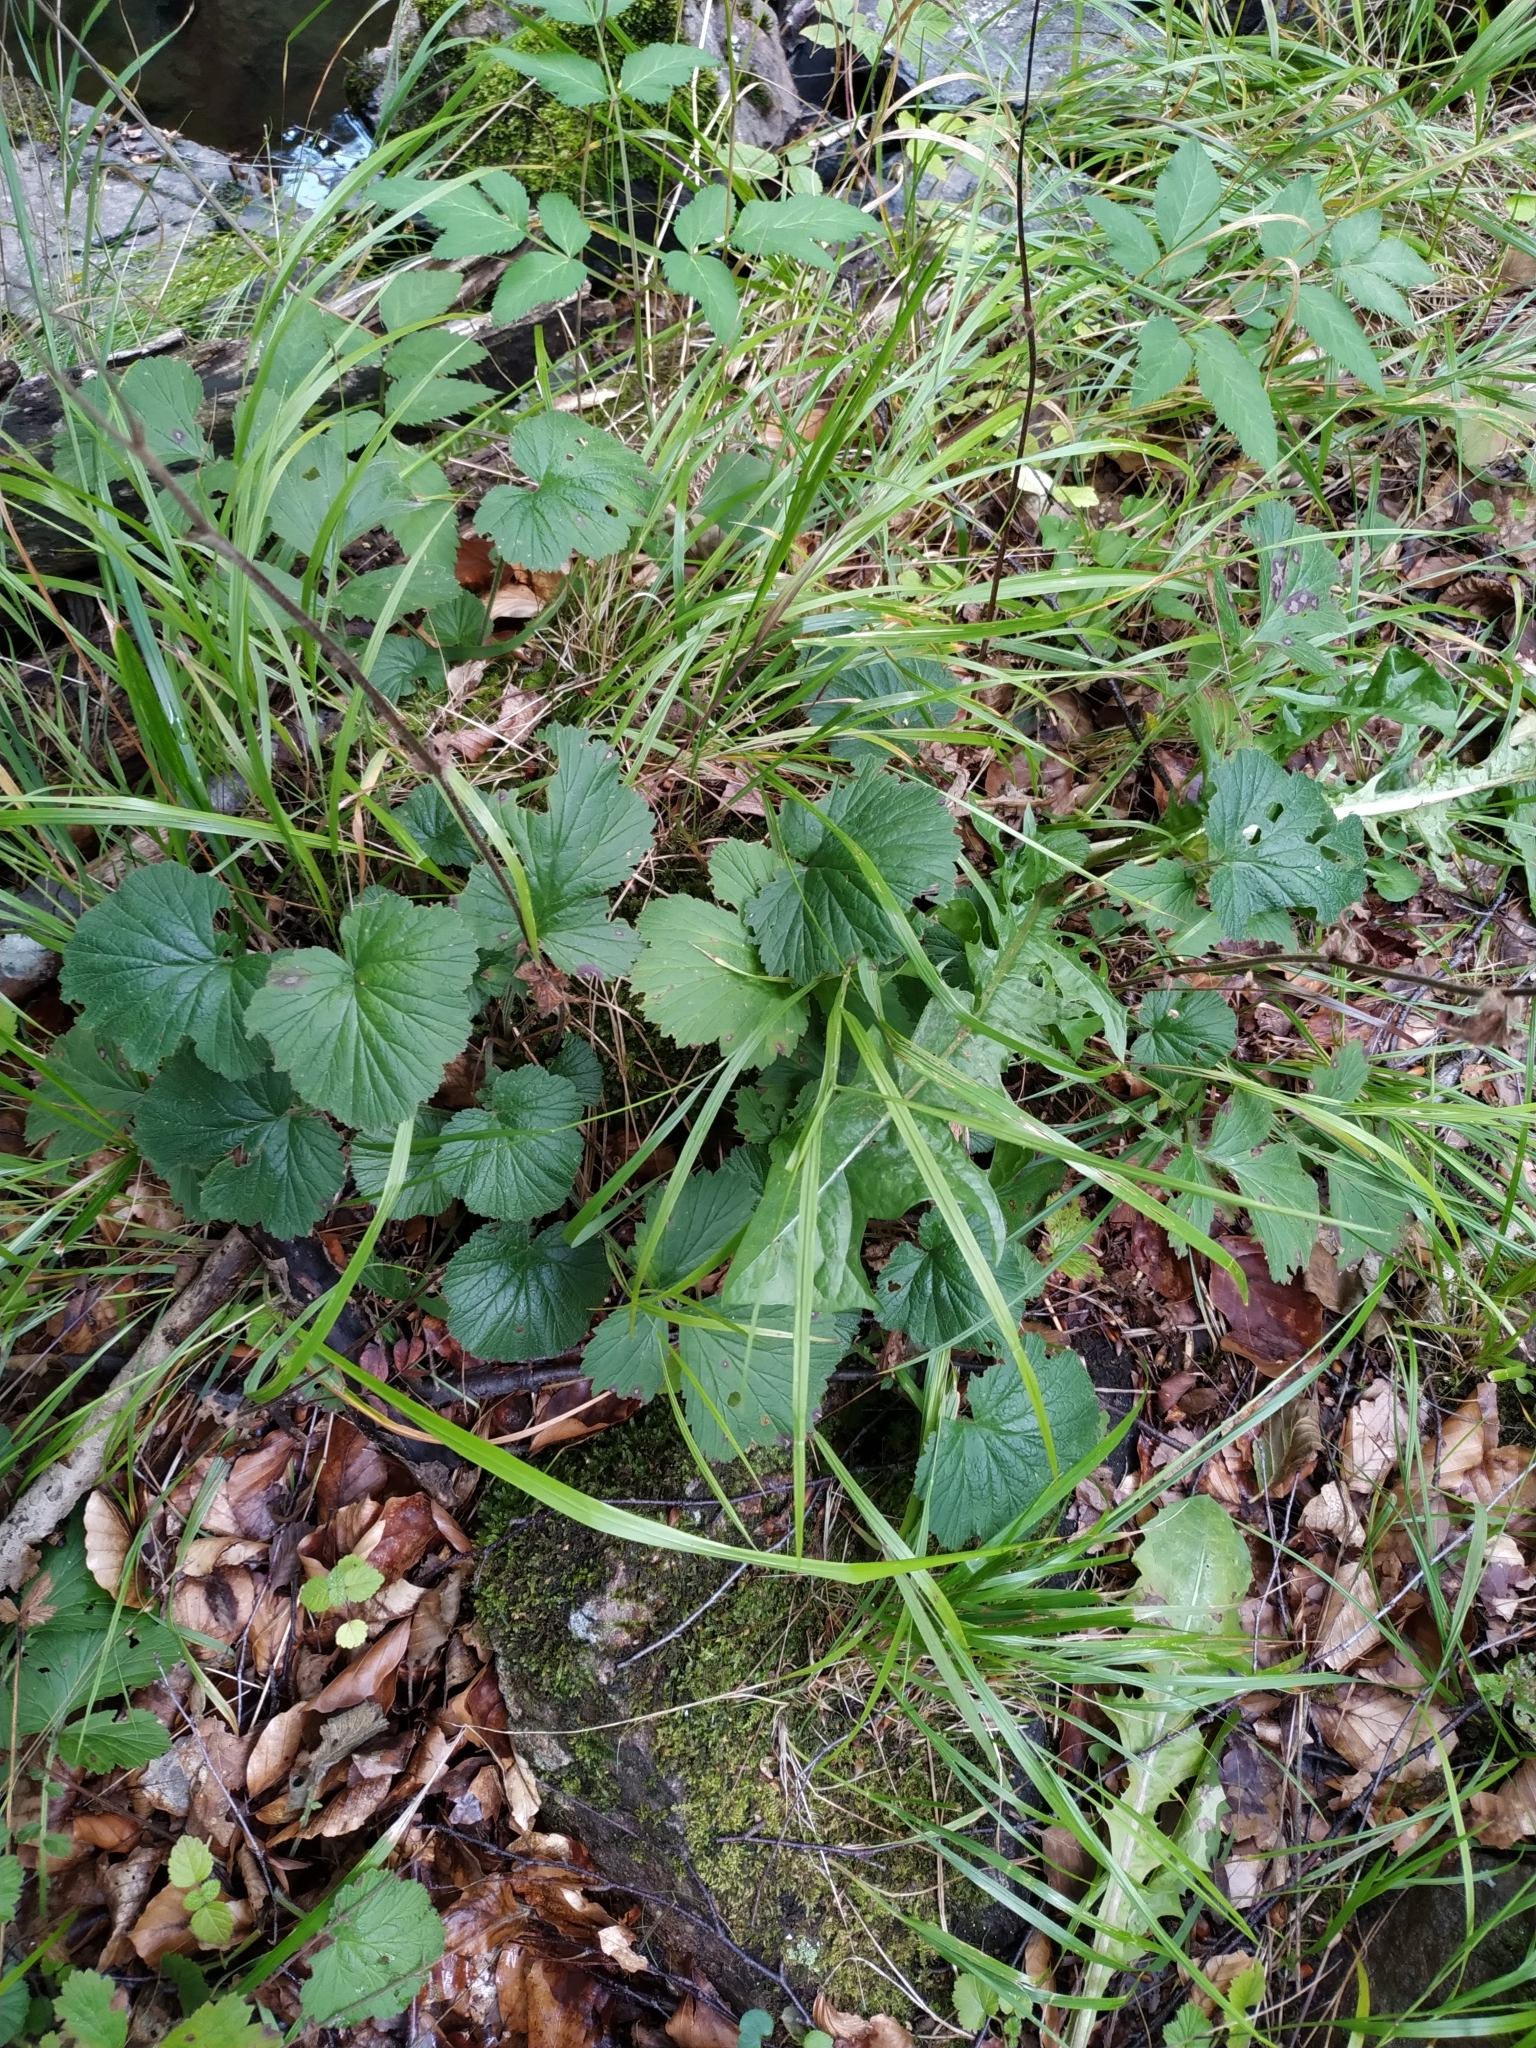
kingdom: Plantae
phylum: Tracheophyta
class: Magnoliopsida
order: Rosales
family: Rosaceae
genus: Geum
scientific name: Geum rivale
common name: Water avens
